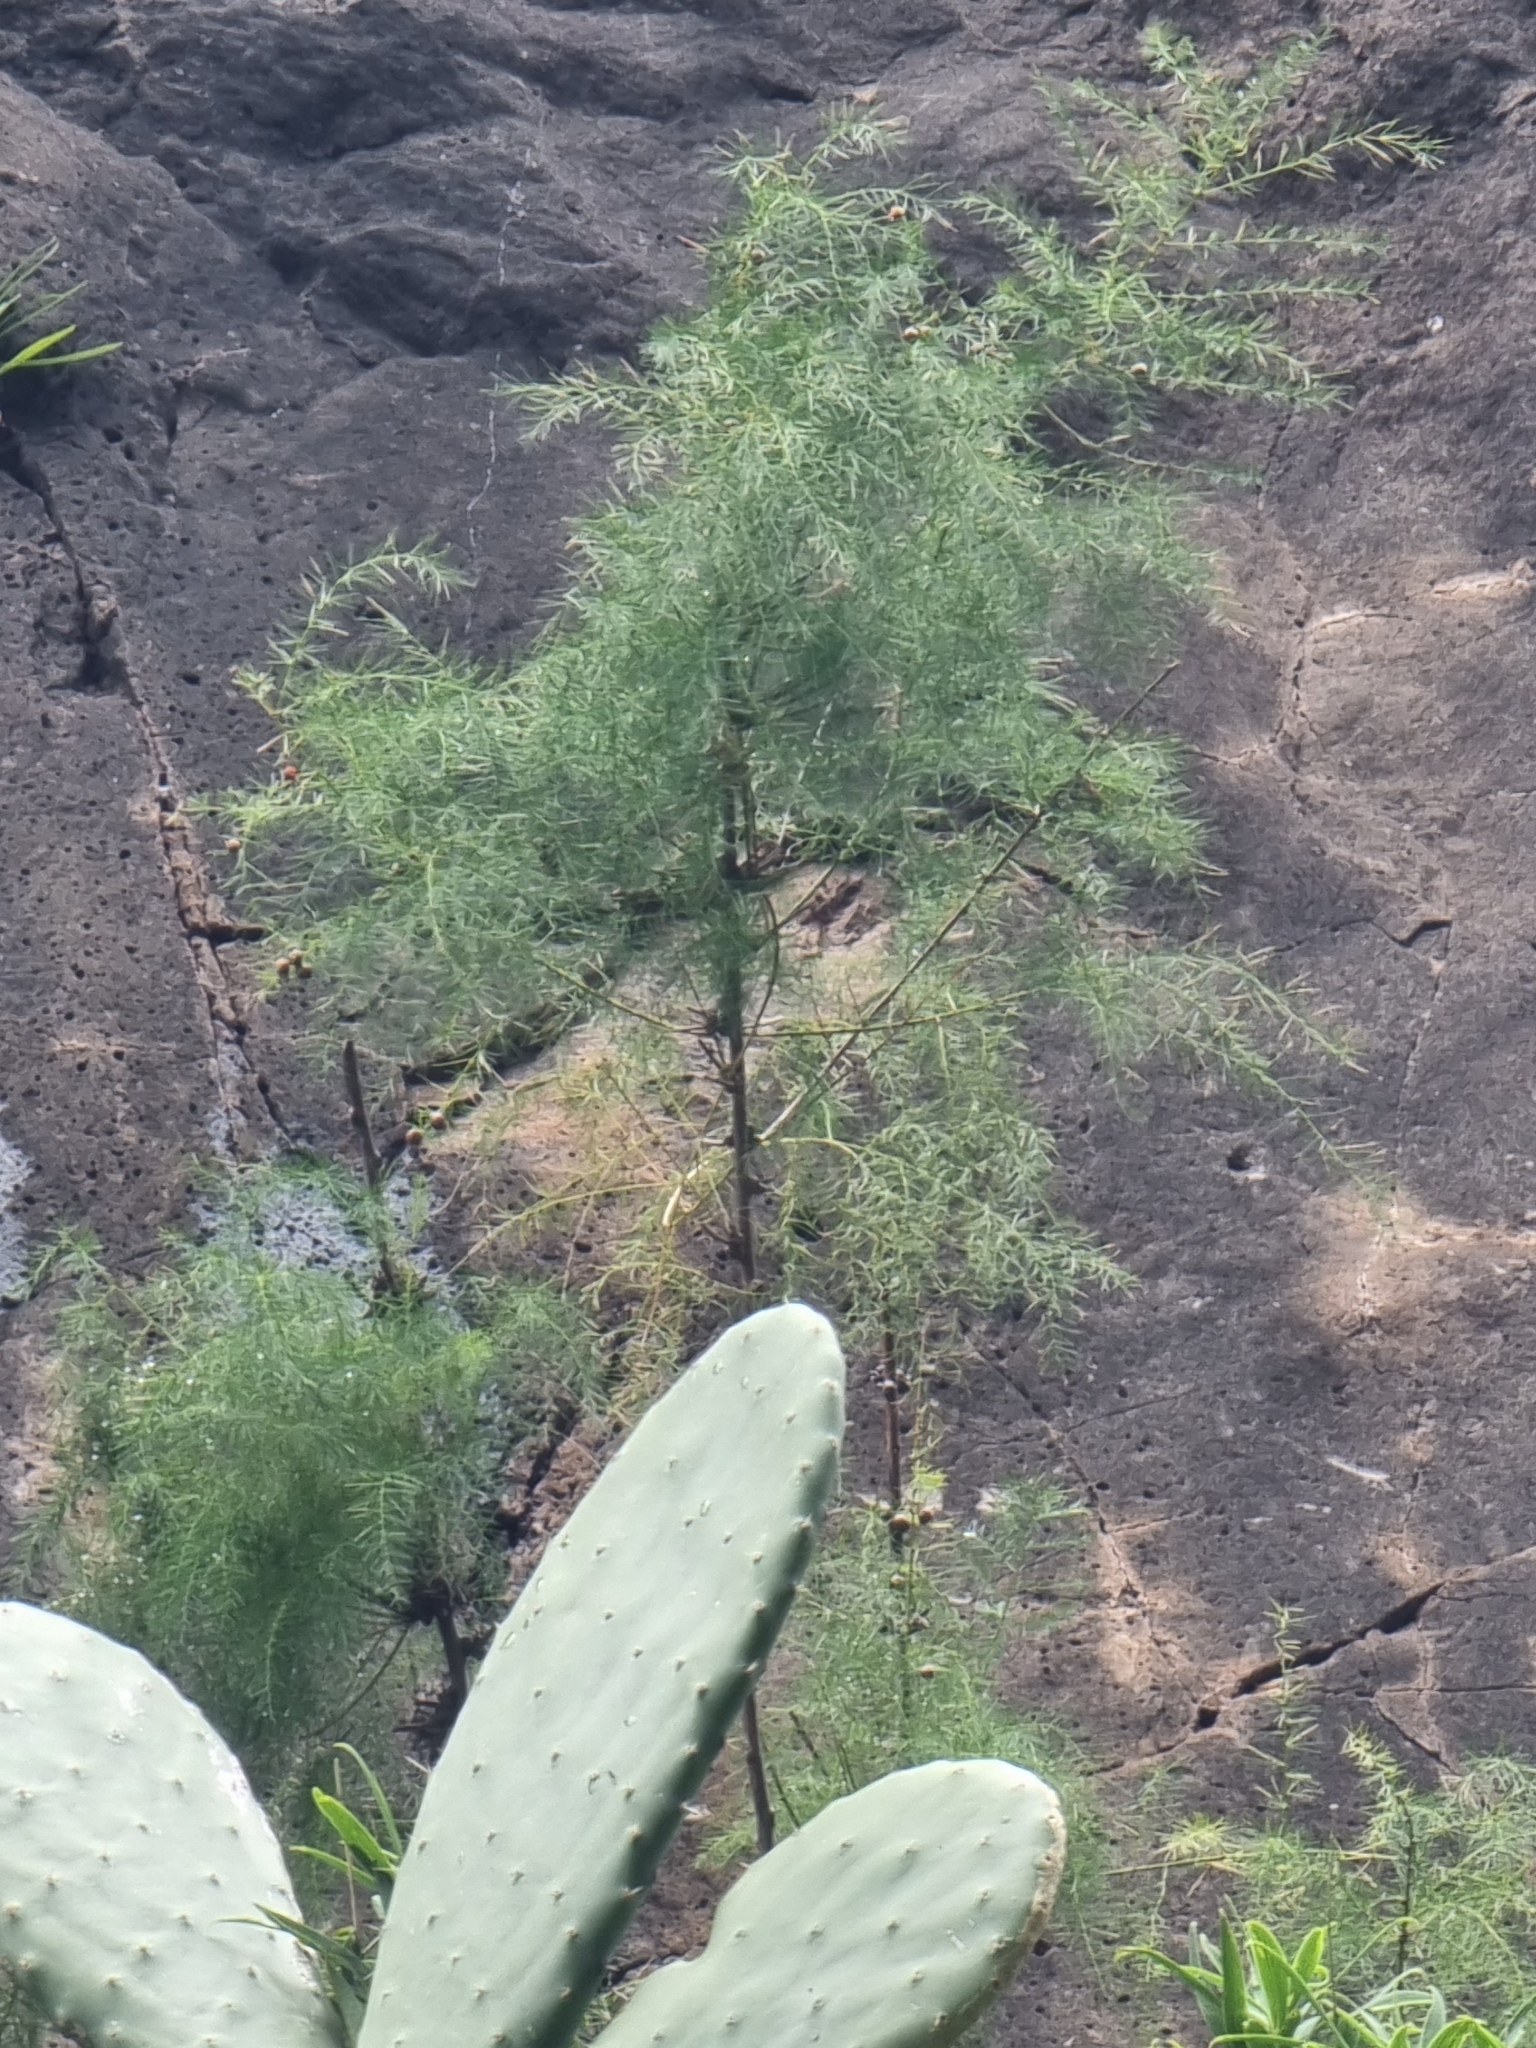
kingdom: Plantae
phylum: Tracheophyta
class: Liliopsida
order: Asparagales
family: Asparagaceae
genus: Asparagus
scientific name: Asparagus umbellatus
